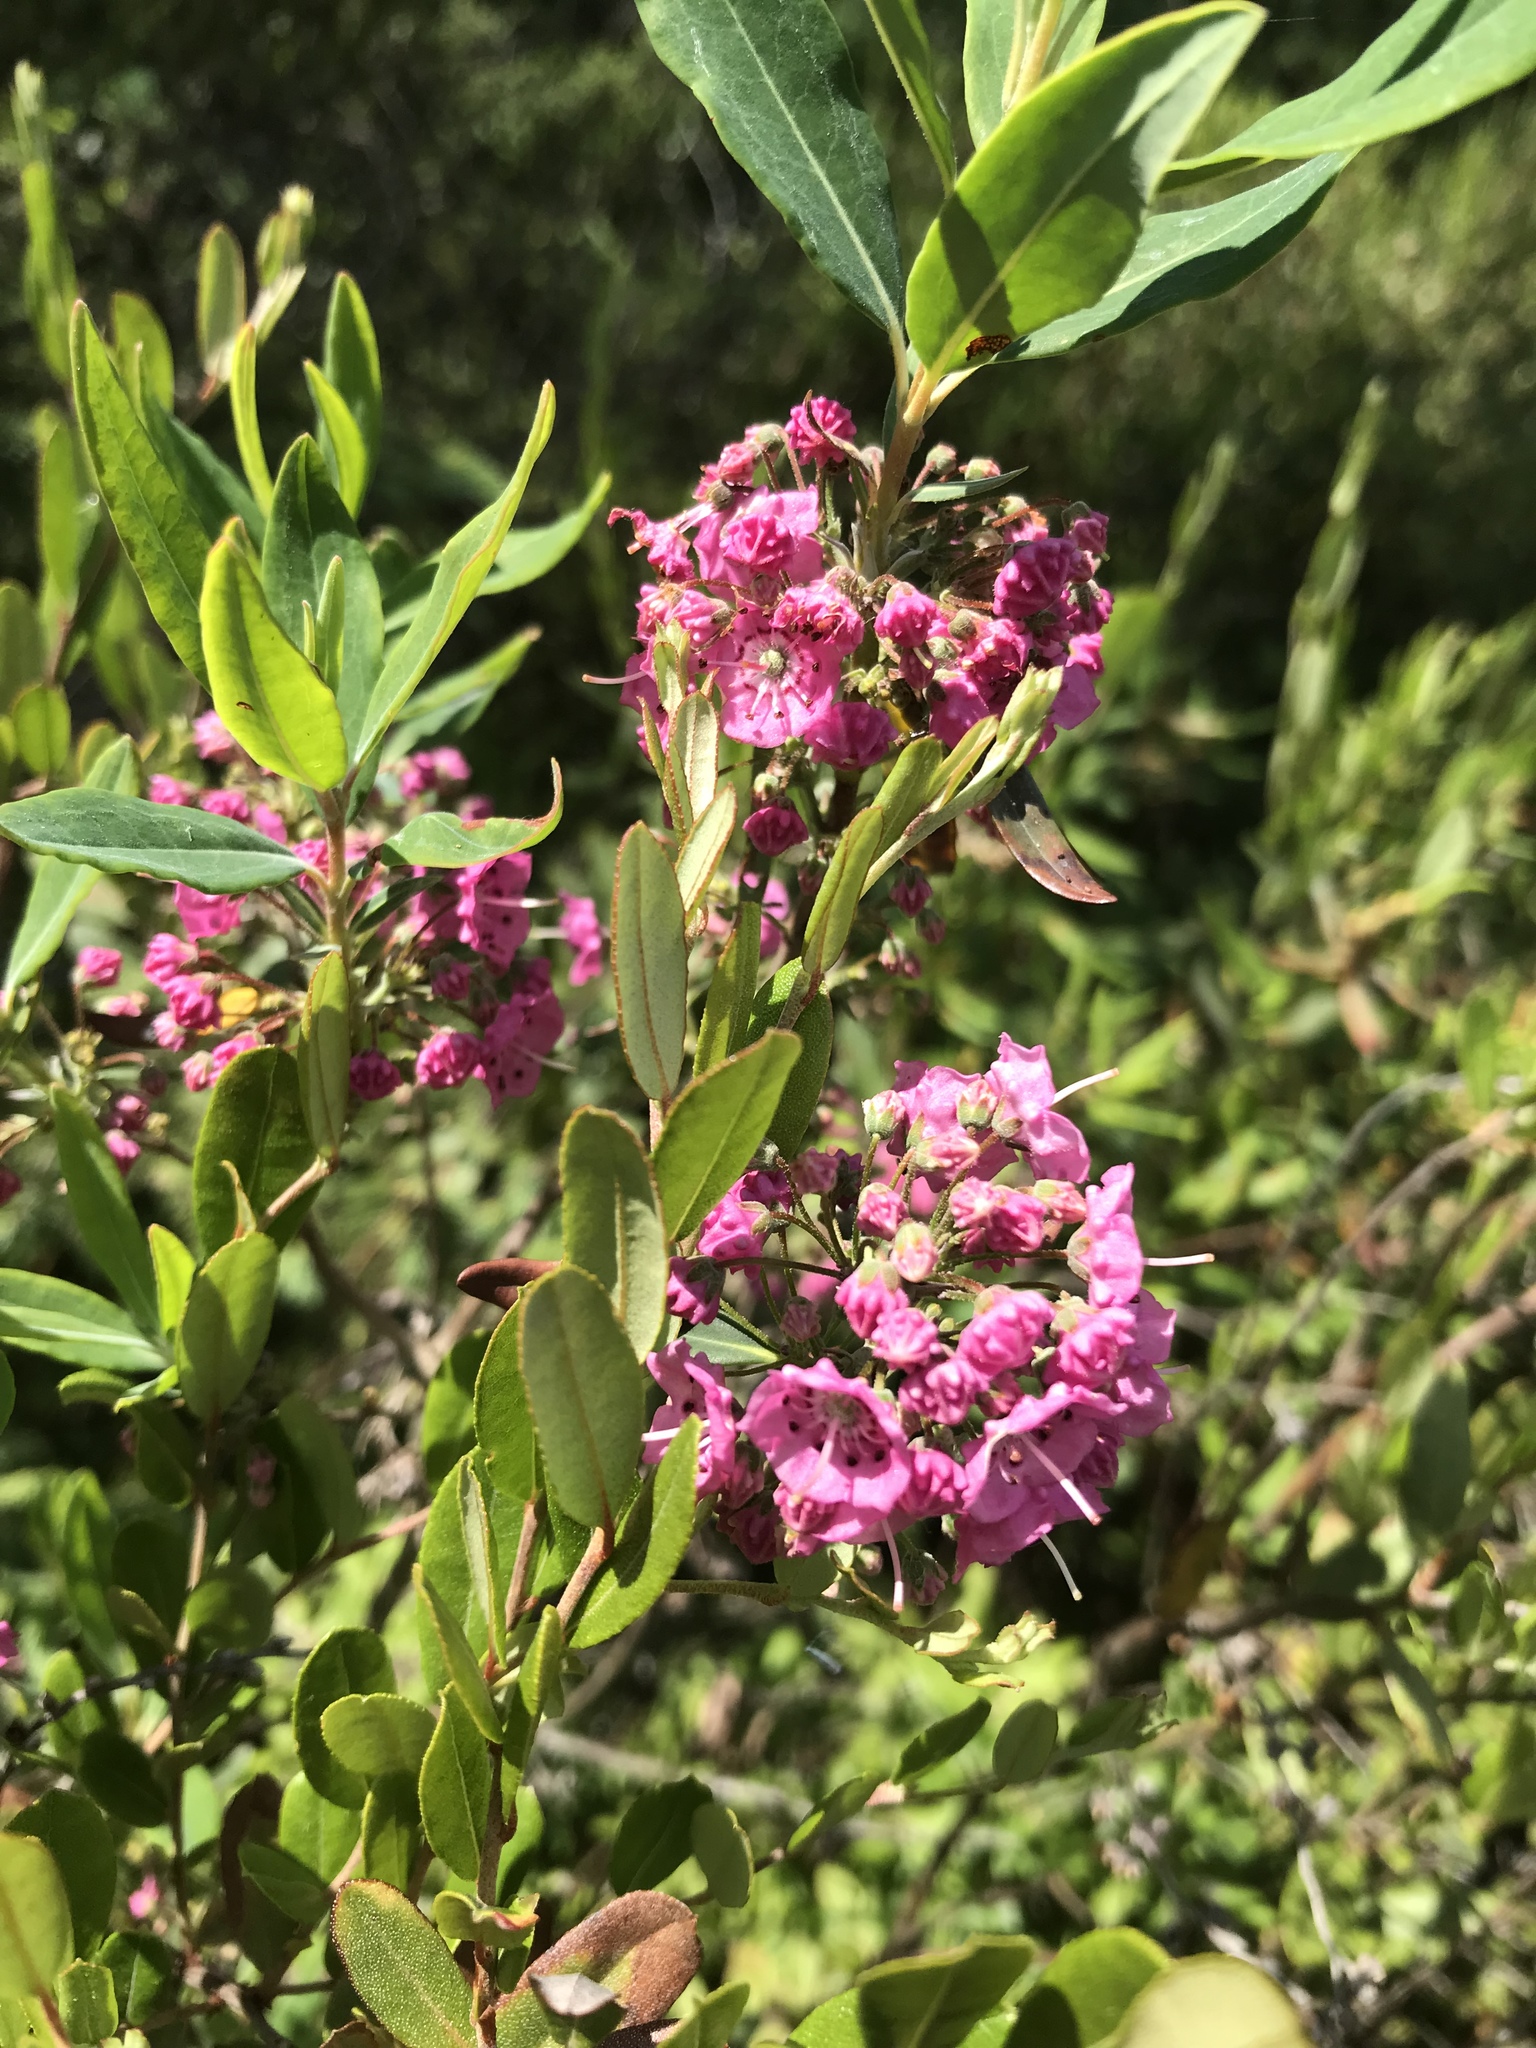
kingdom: Plantae
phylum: Tracheophyta
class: Magnoliopsida
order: Ericales
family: Ericaceae
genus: Kalmia
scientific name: Kalmia angustifolia
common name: Sheep-laurel
